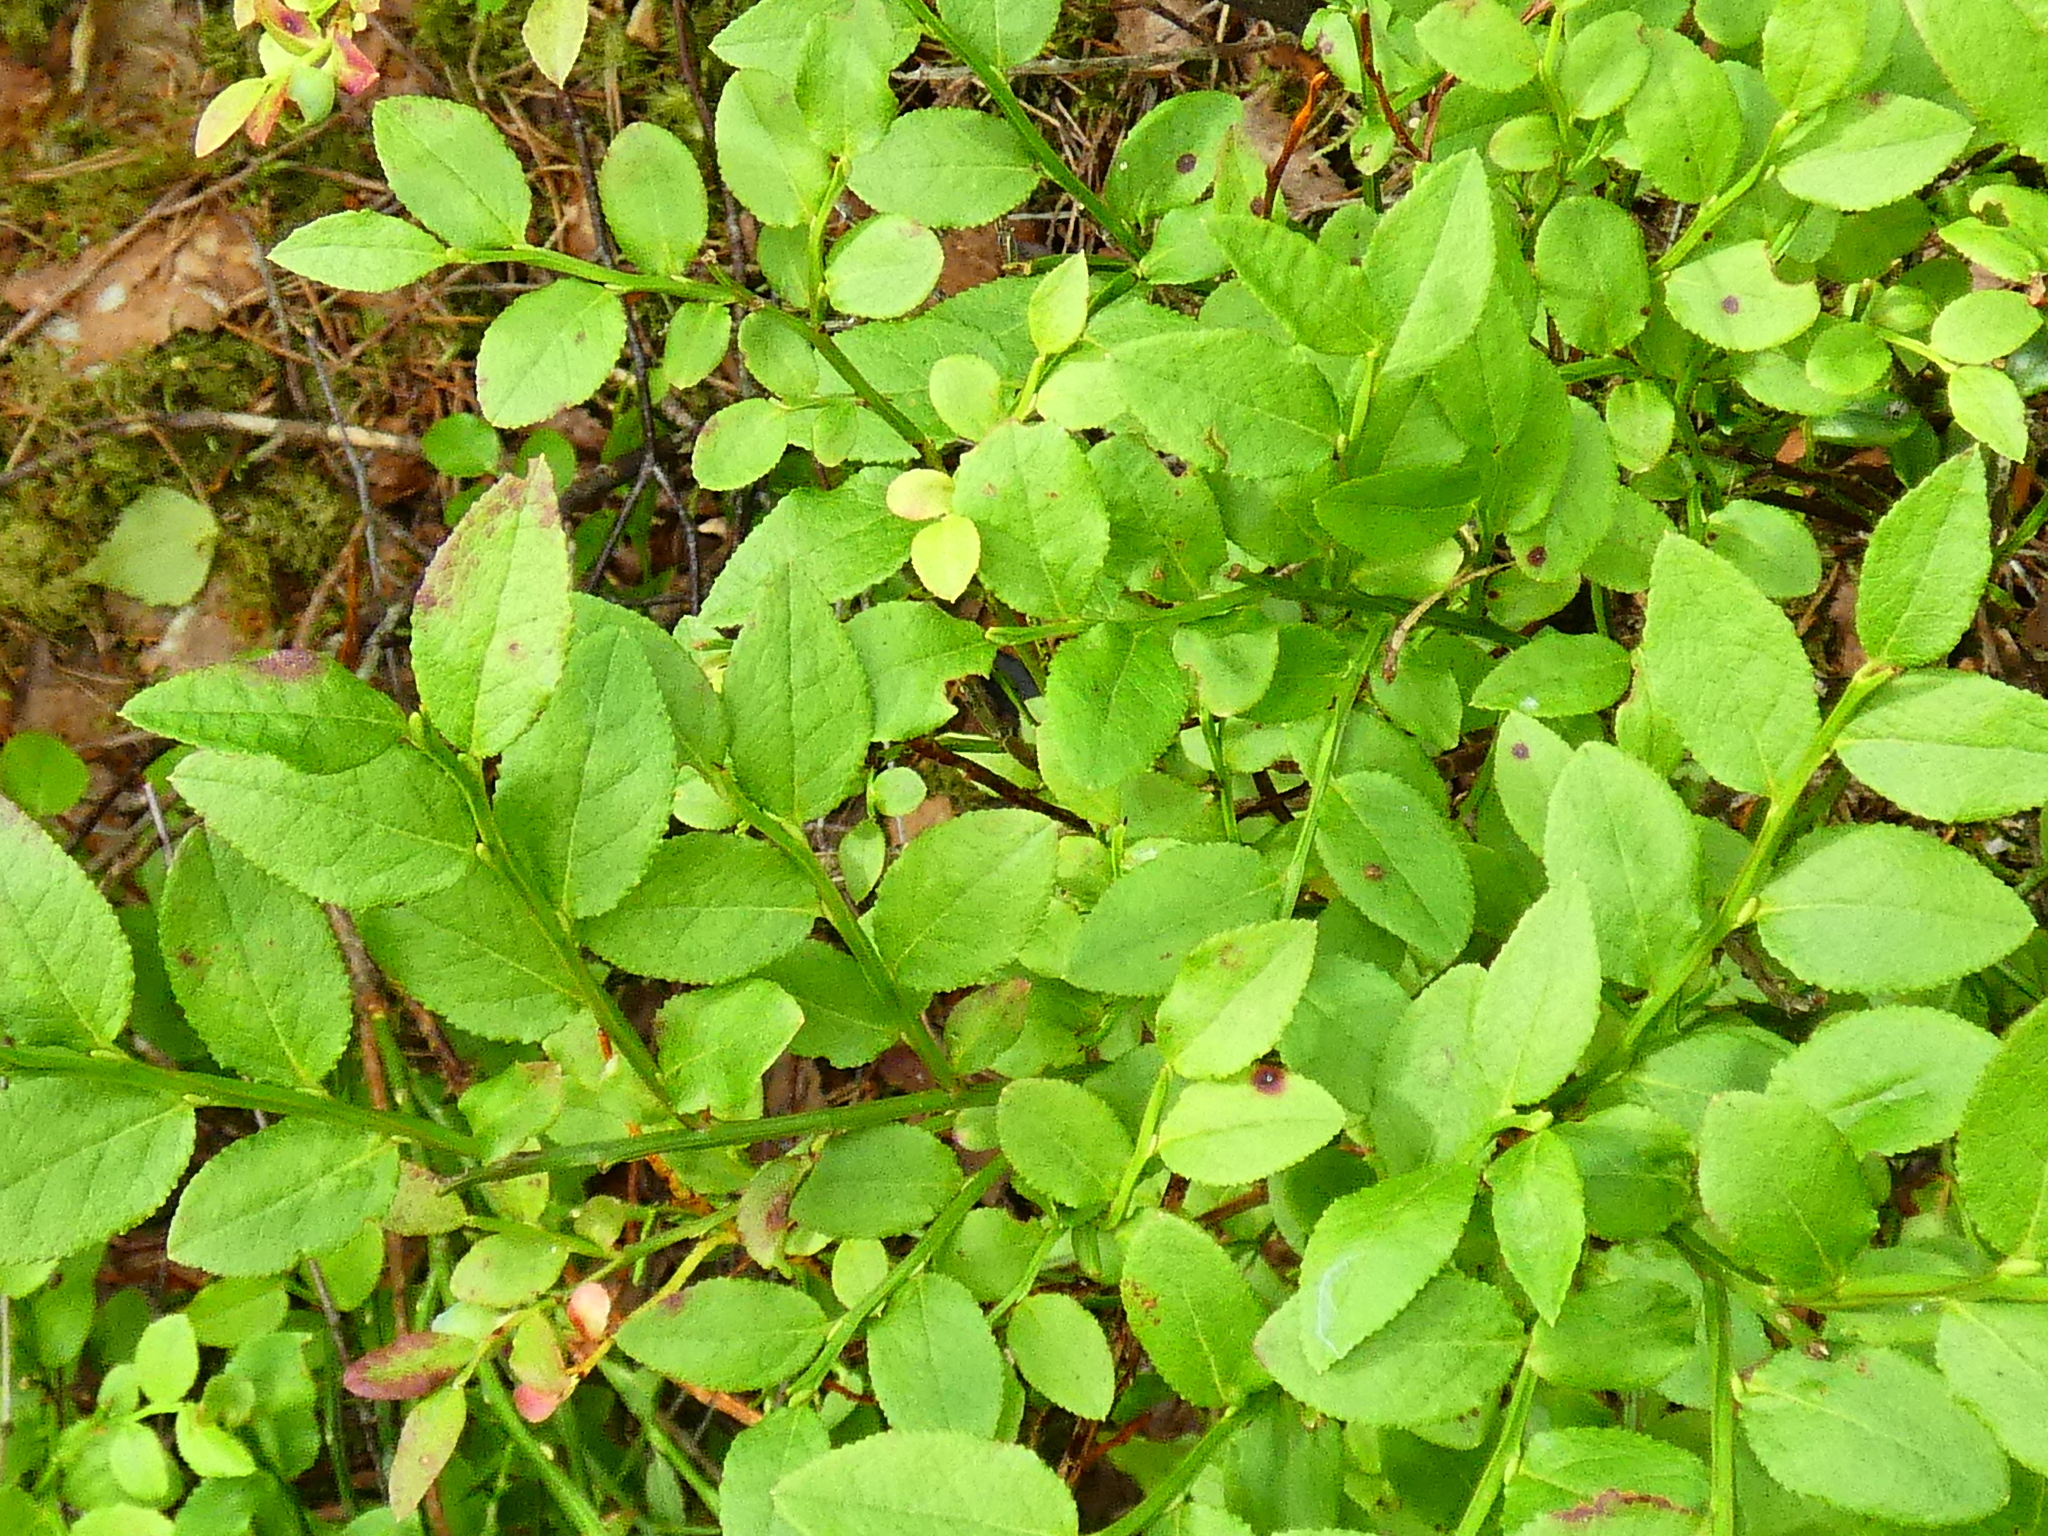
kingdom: Plantae
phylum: Tracheophyta
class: Magnoliopsida
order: Ericales
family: Ericaceae
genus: Vaccinium
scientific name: Vaccinium myrtillus
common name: Bilberry
